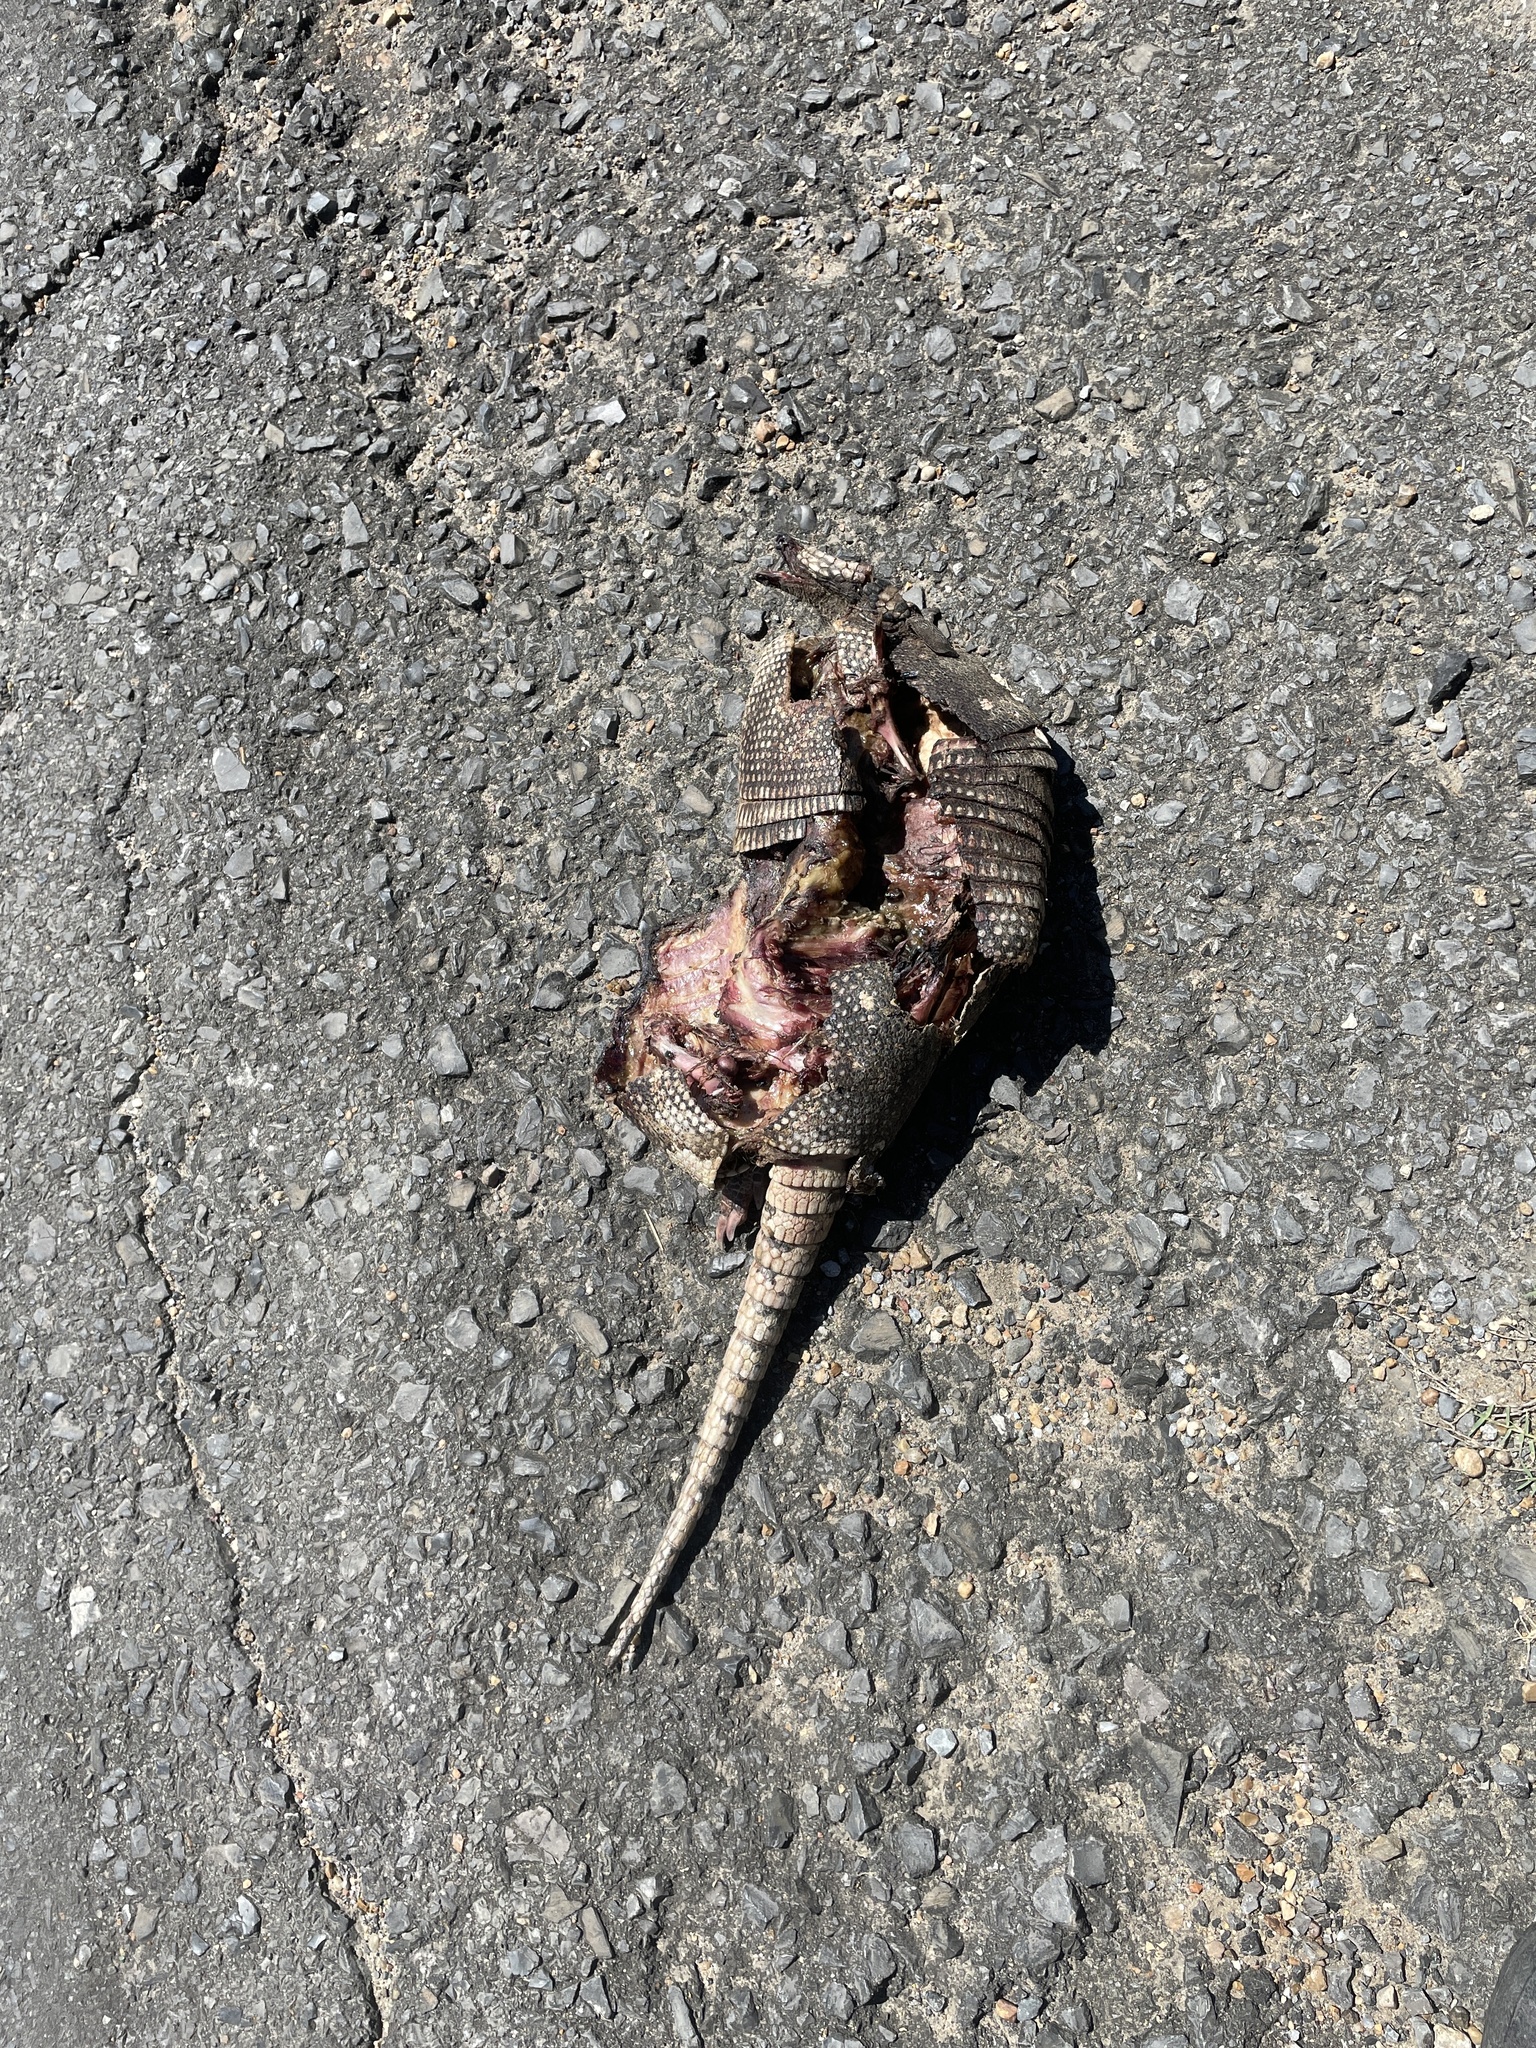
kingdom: Animalia
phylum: Chordata
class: Mammalia
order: Cingulata
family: Dasypodidae
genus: Dasypus
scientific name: Dasypus novemcinctus
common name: Nine-banded armadillo
